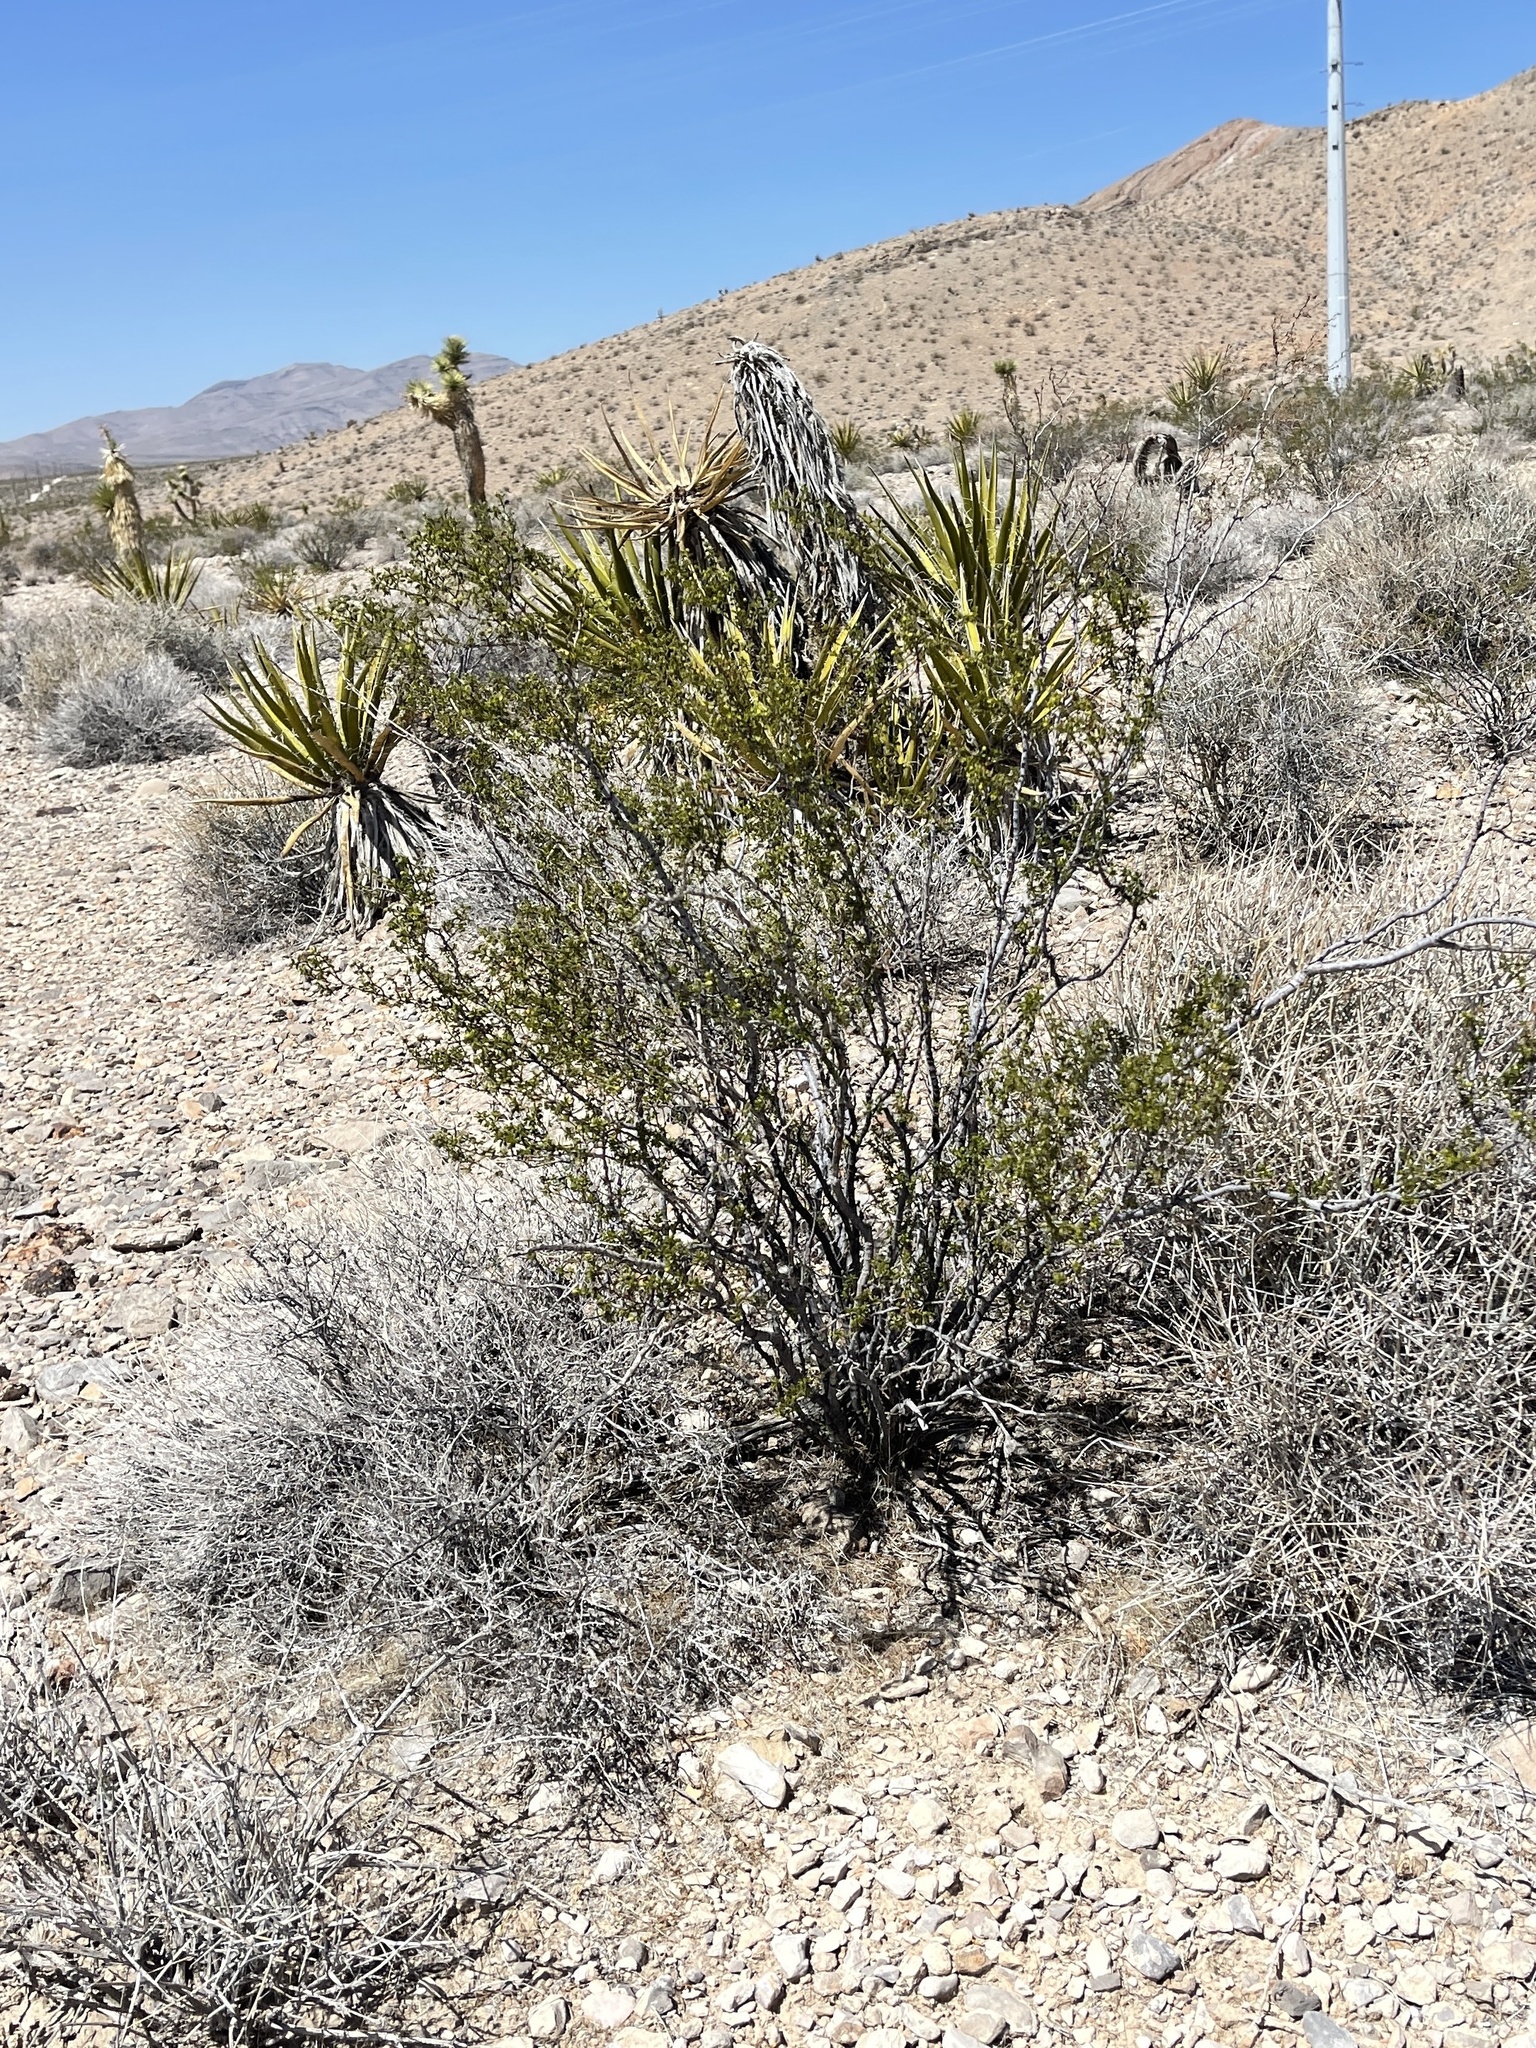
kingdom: Plantae
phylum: Tracheophyta
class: Magnoliopsida
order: Zygophyllales
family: Zygophyllaceae
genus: Larrea
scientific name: Larrea tridentata
